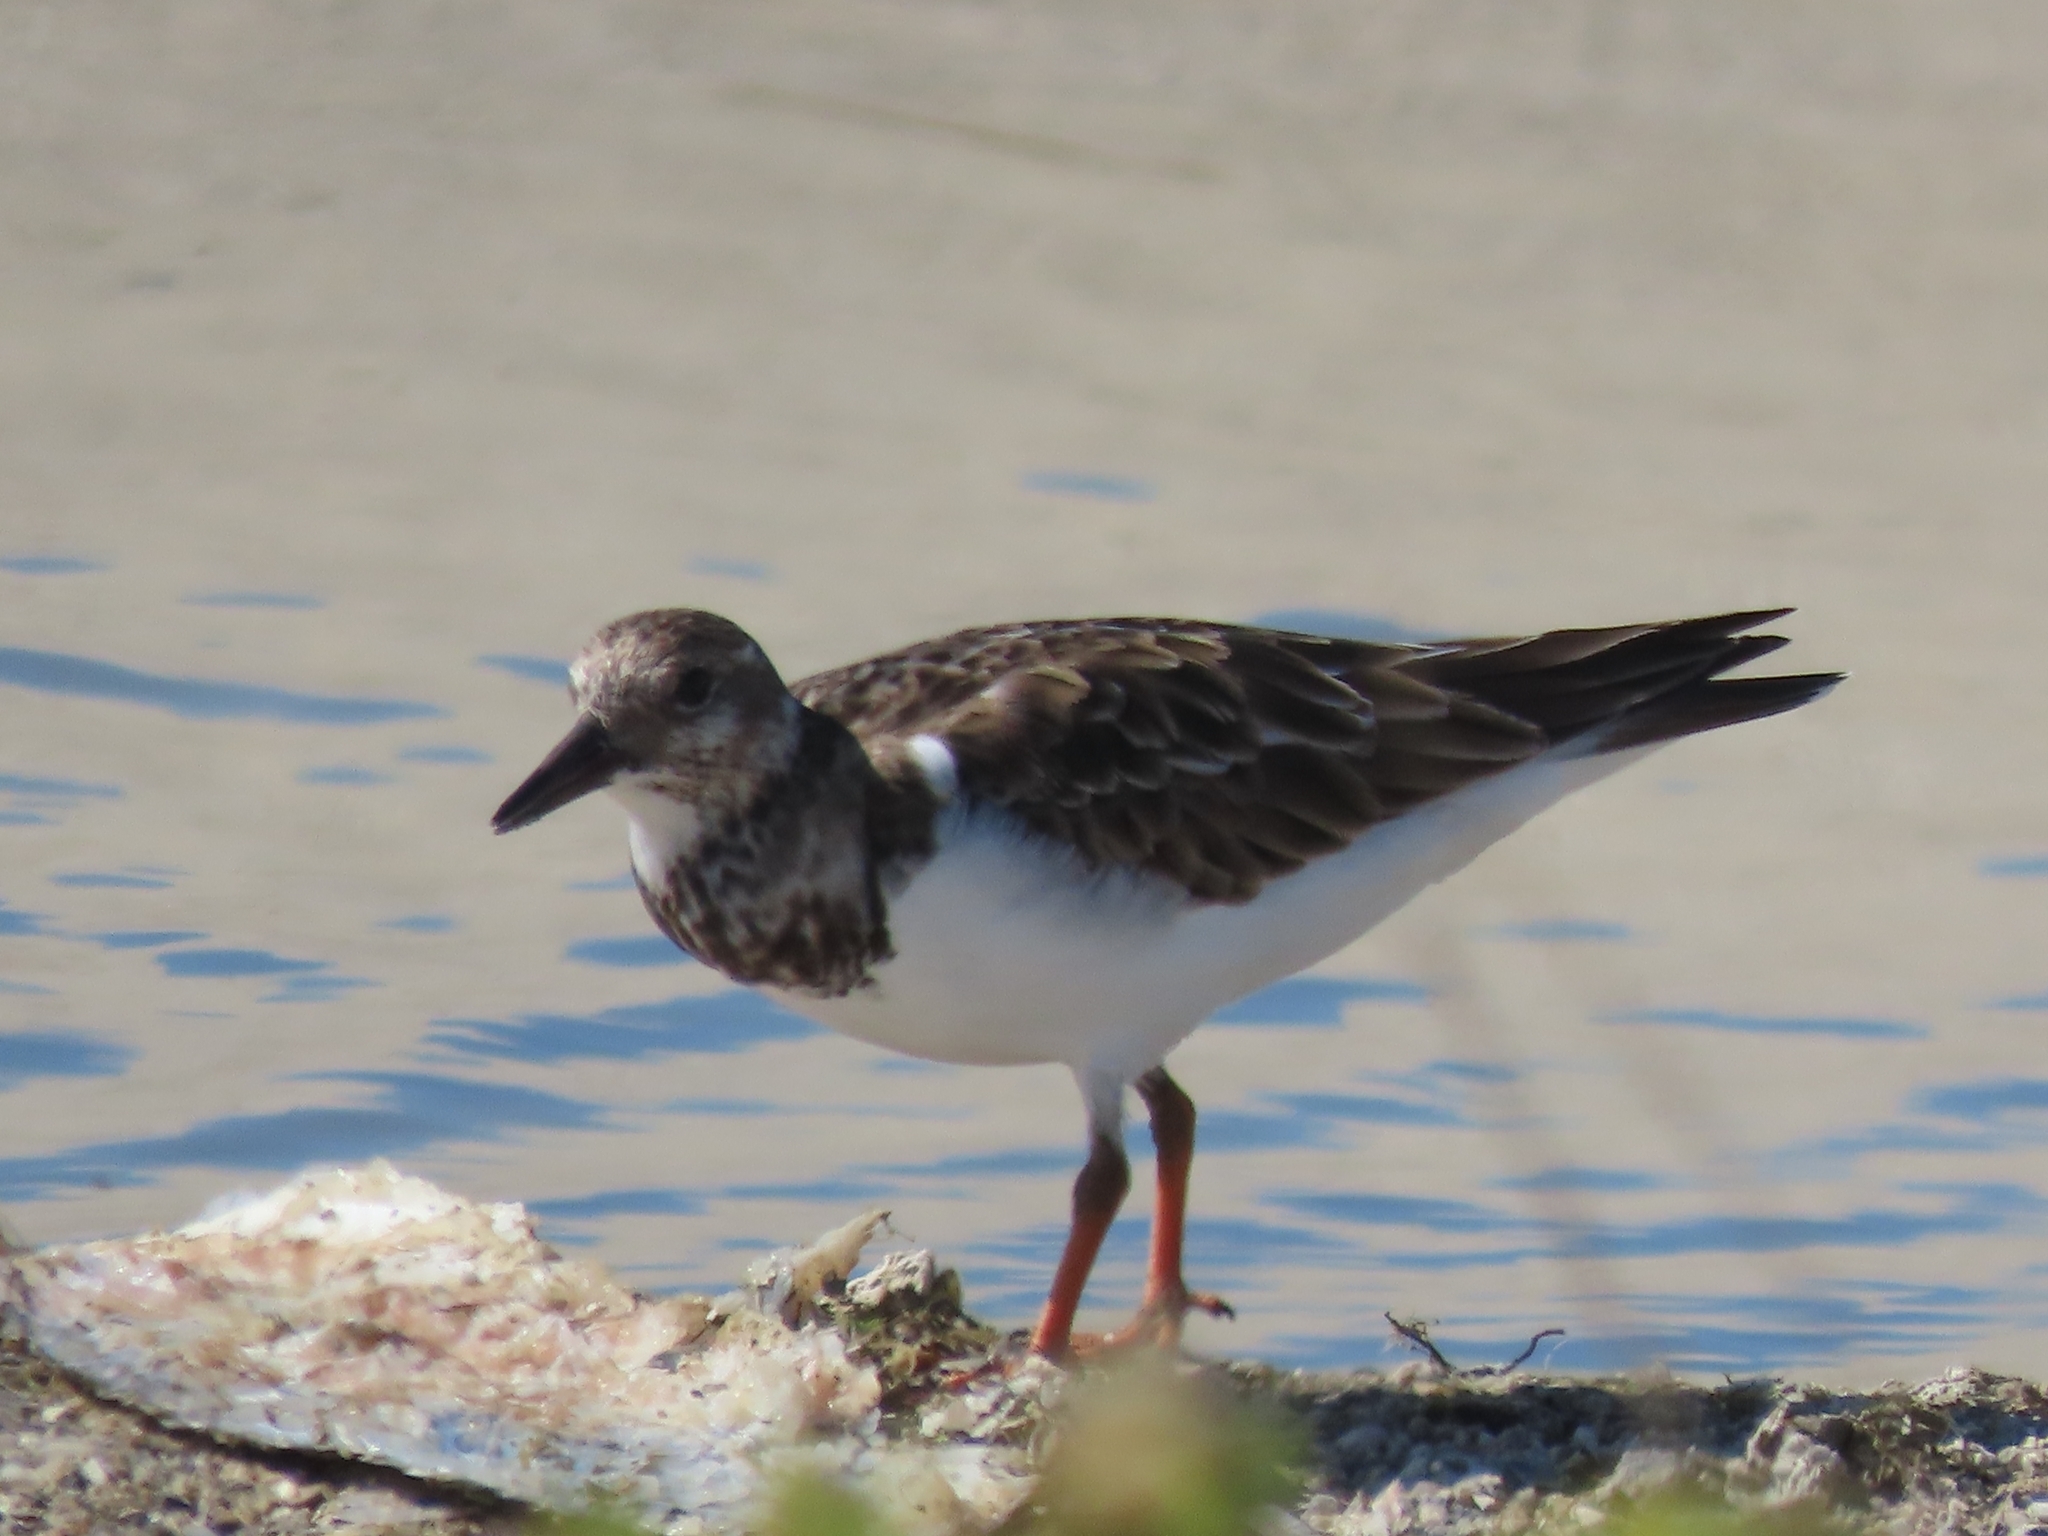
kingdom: Animalia
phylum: Chordata
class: Aves
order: Charadriiformes
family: Scolopacidae
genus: Arenaria
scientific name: Arenaria interpres
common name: Ruddy turnstone
